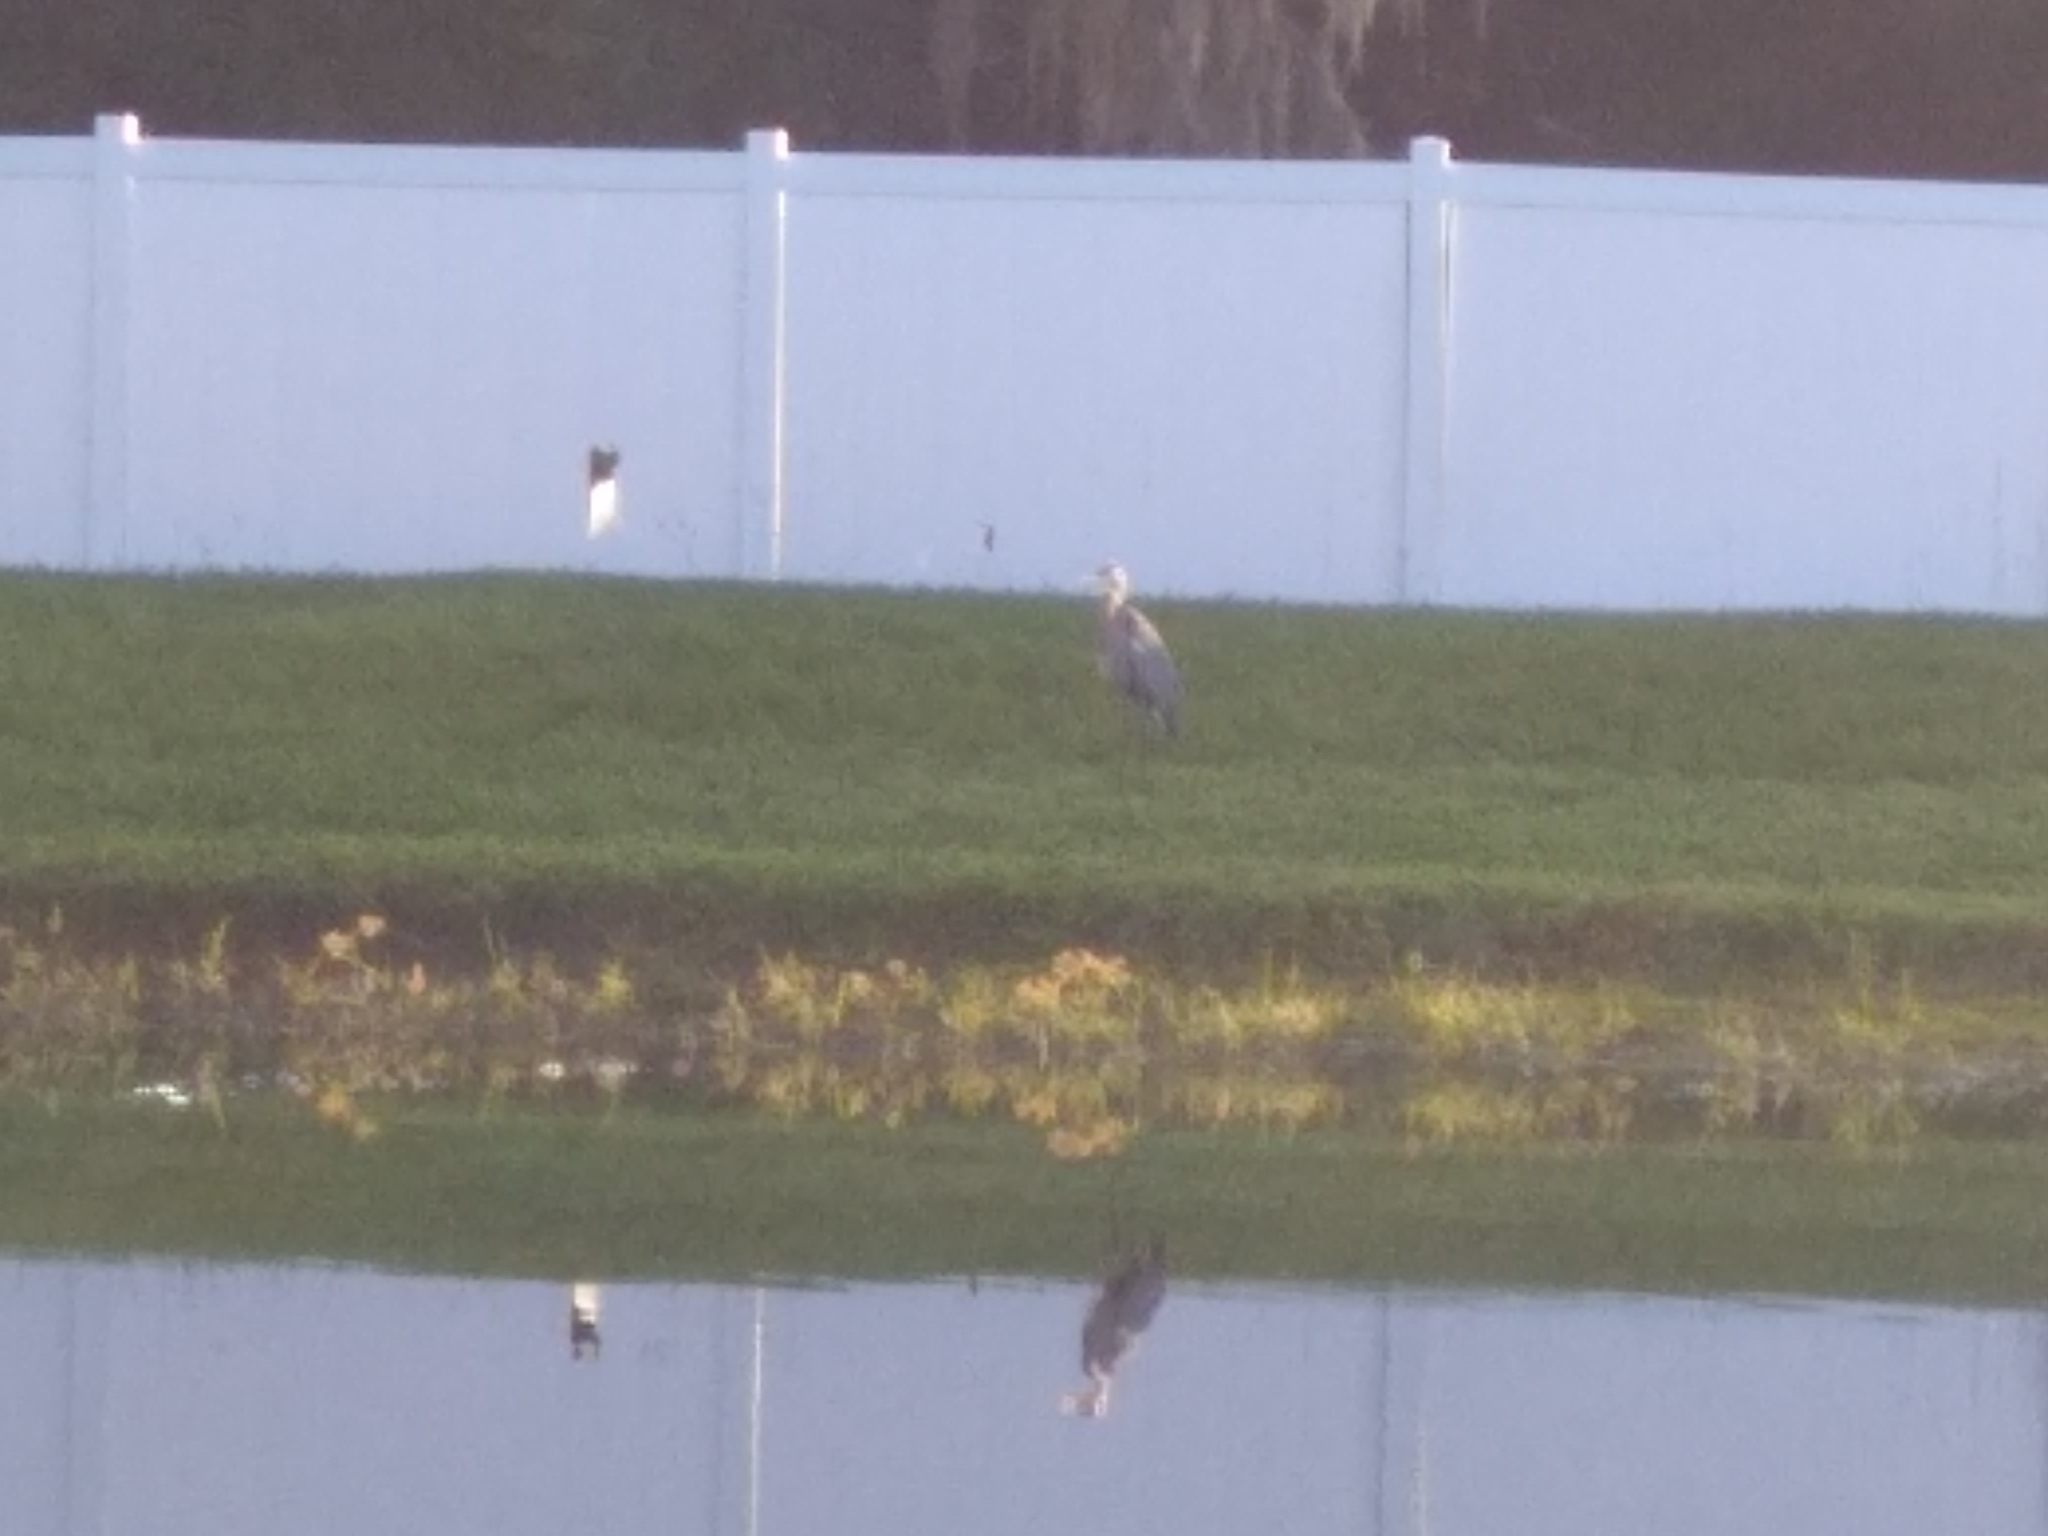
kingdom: Animalia
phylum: Chordata
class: Aves
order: Pelecaniformes
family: Ardeidae
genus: Ardea
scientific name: Ardea herodias
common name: Great blue heron
